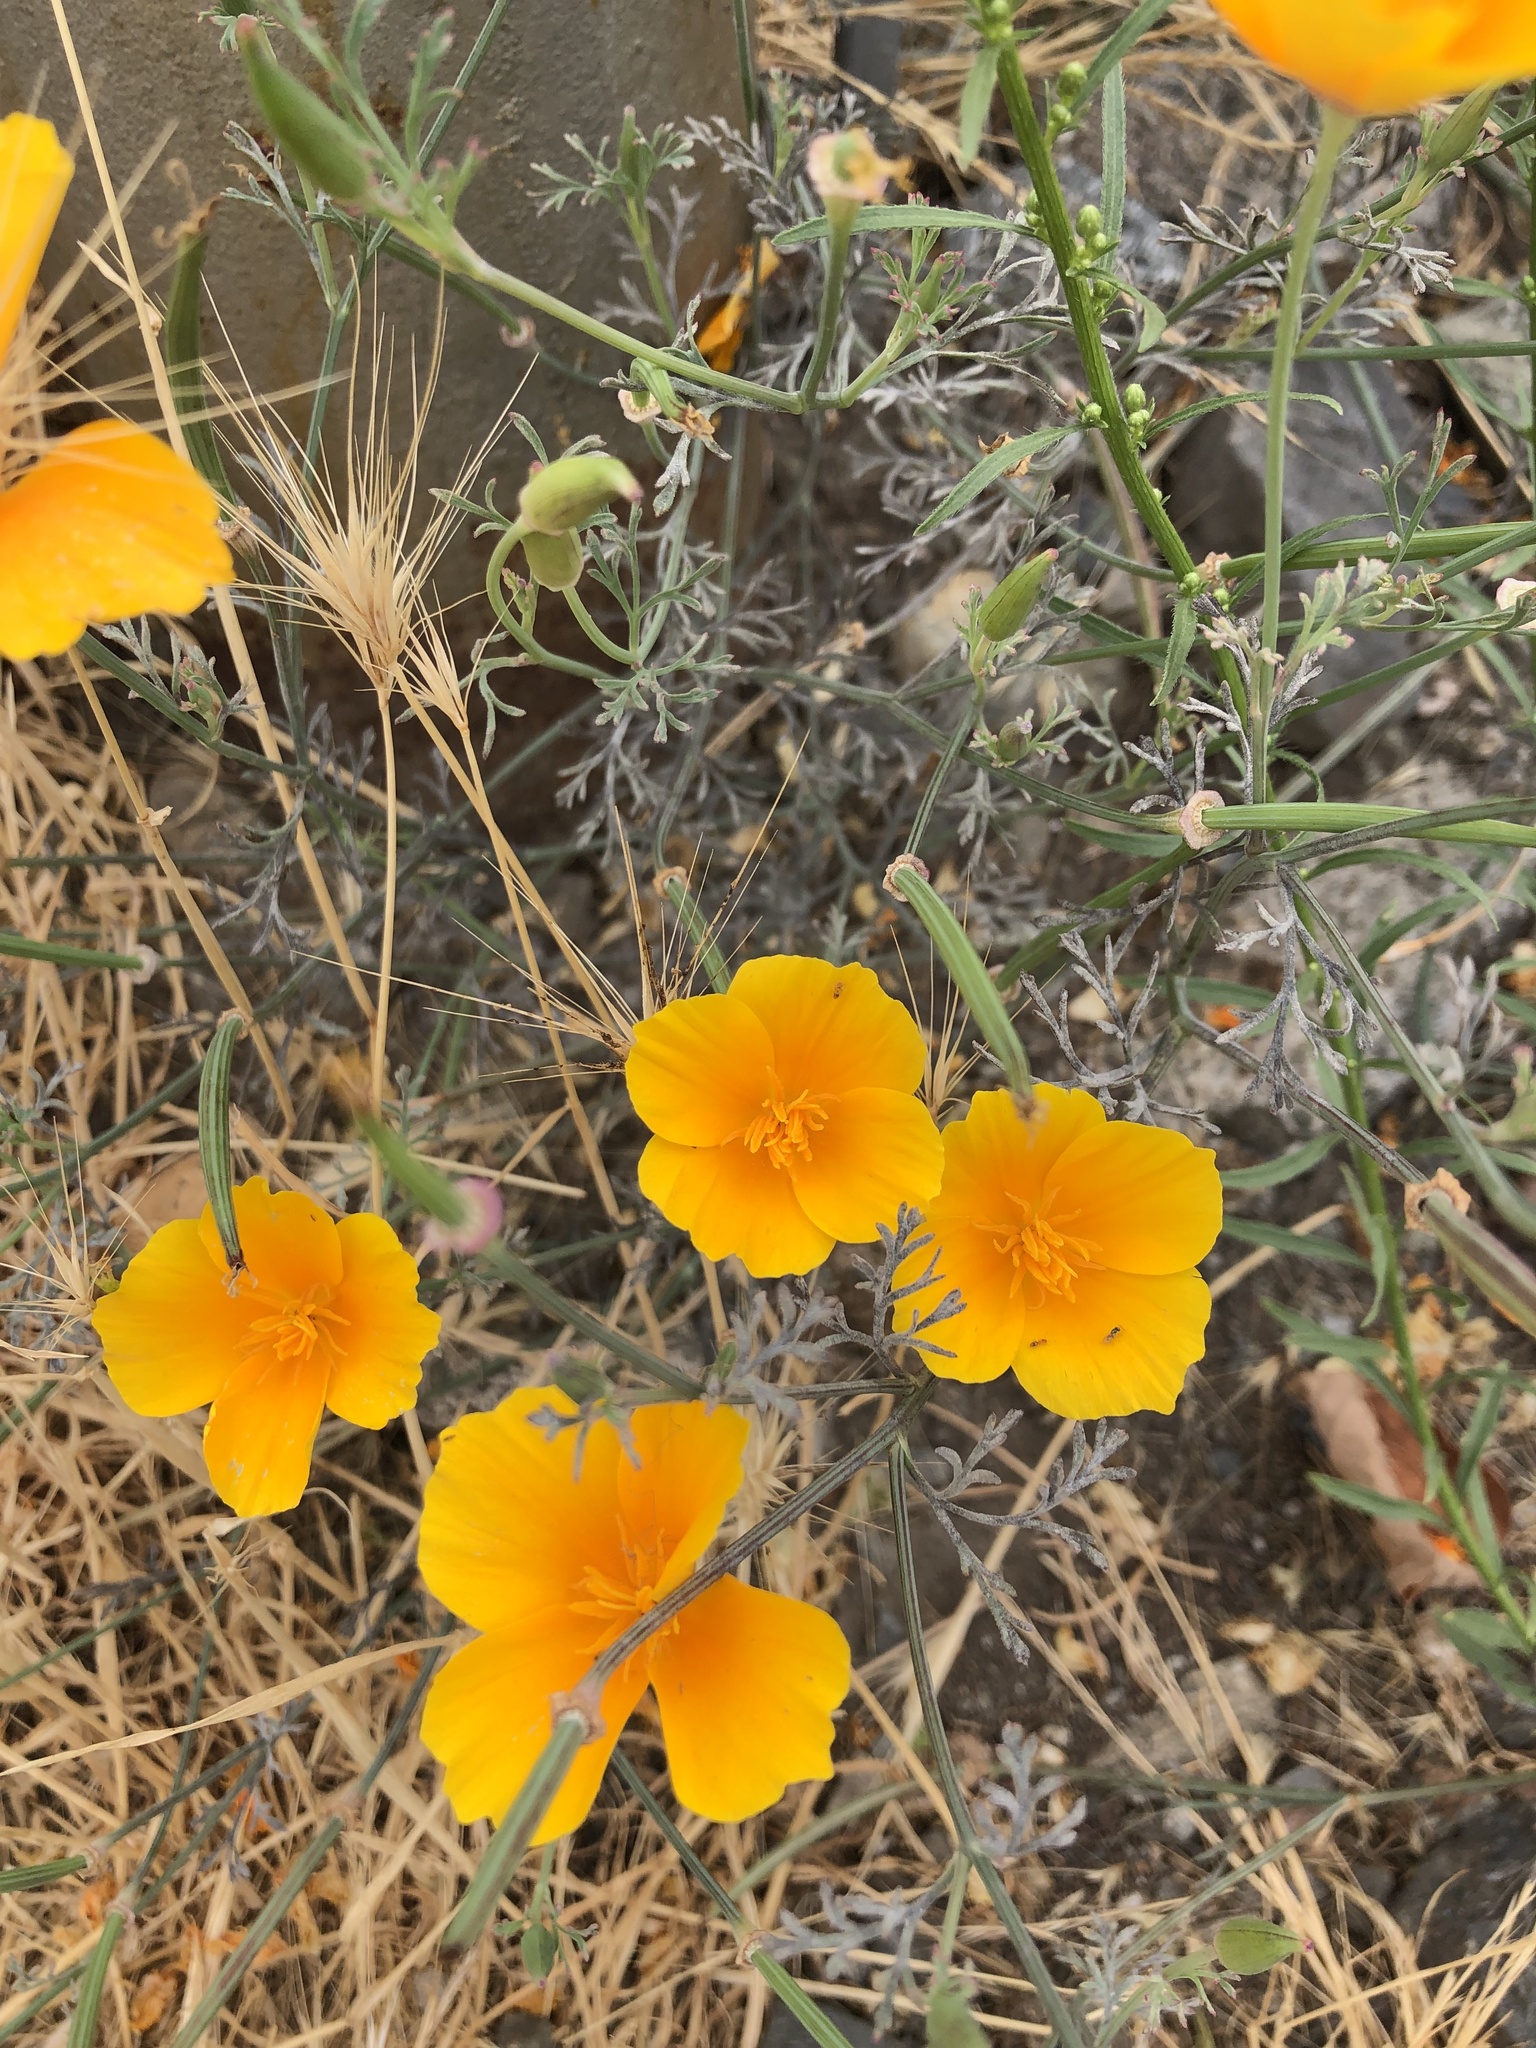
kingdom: Plantae
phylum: Tracheophyta
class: Magnoliopsida
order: Ranunculales
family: Papaveraceae
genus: Eschscholzia
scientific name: Eschscholzia californica
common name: California poppy
